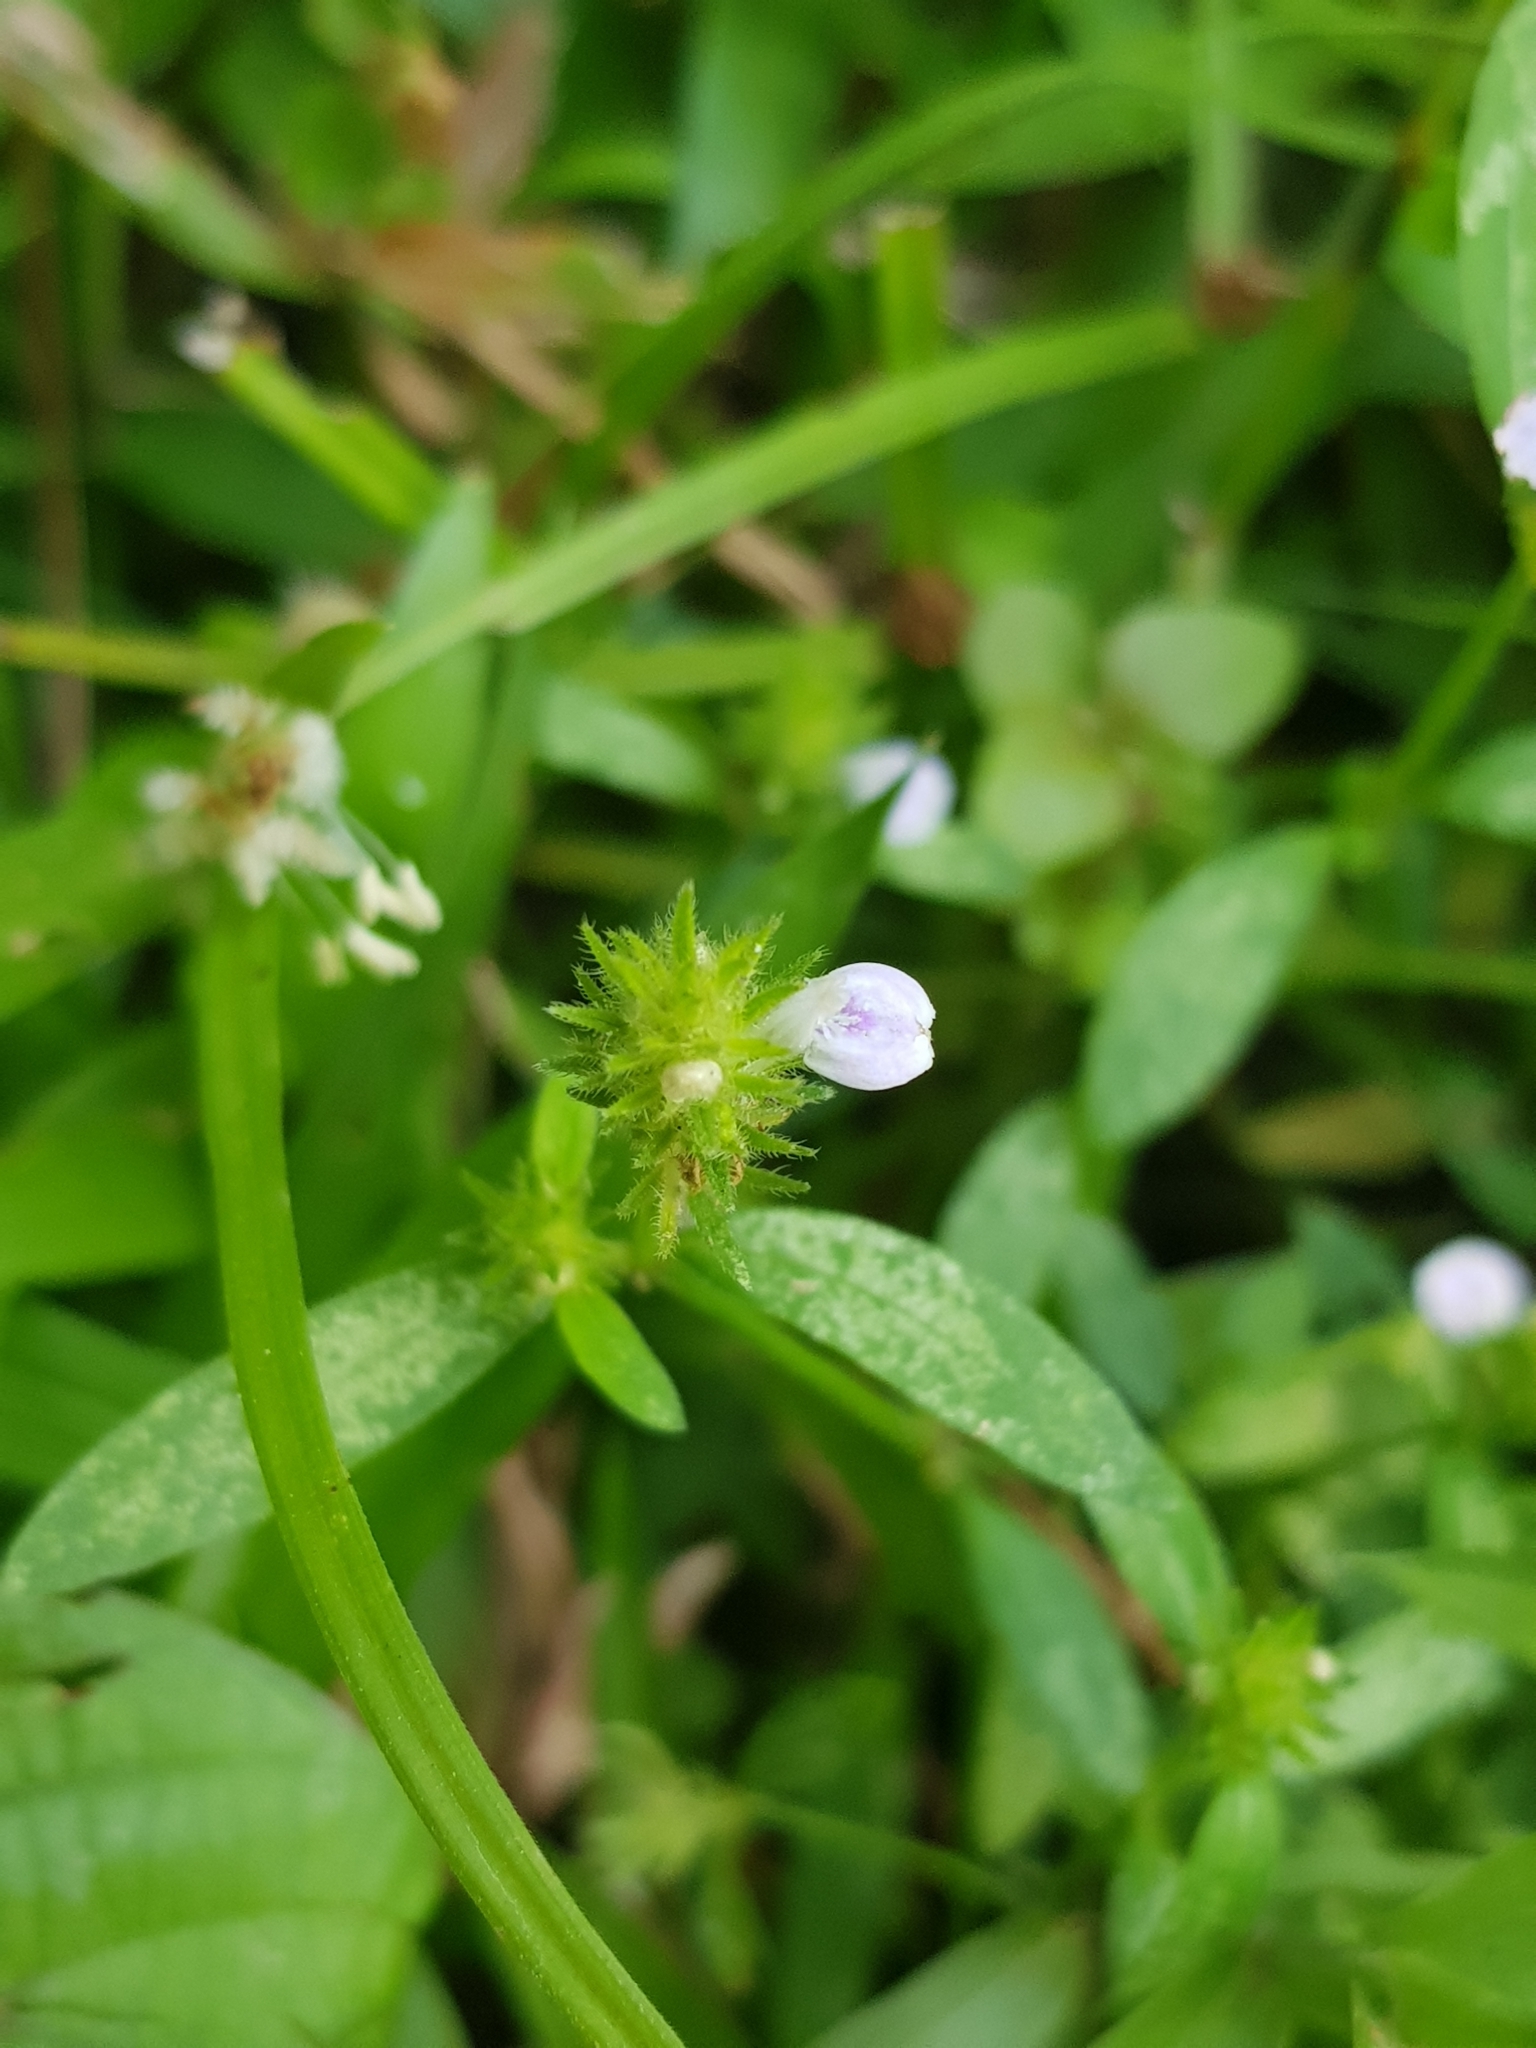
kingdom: Plantae
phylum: Tracheophyta
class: Magnoliopsida
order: Lamiales
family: Acanthaceae
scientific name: Acanthaceae
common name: Acanthaceae
